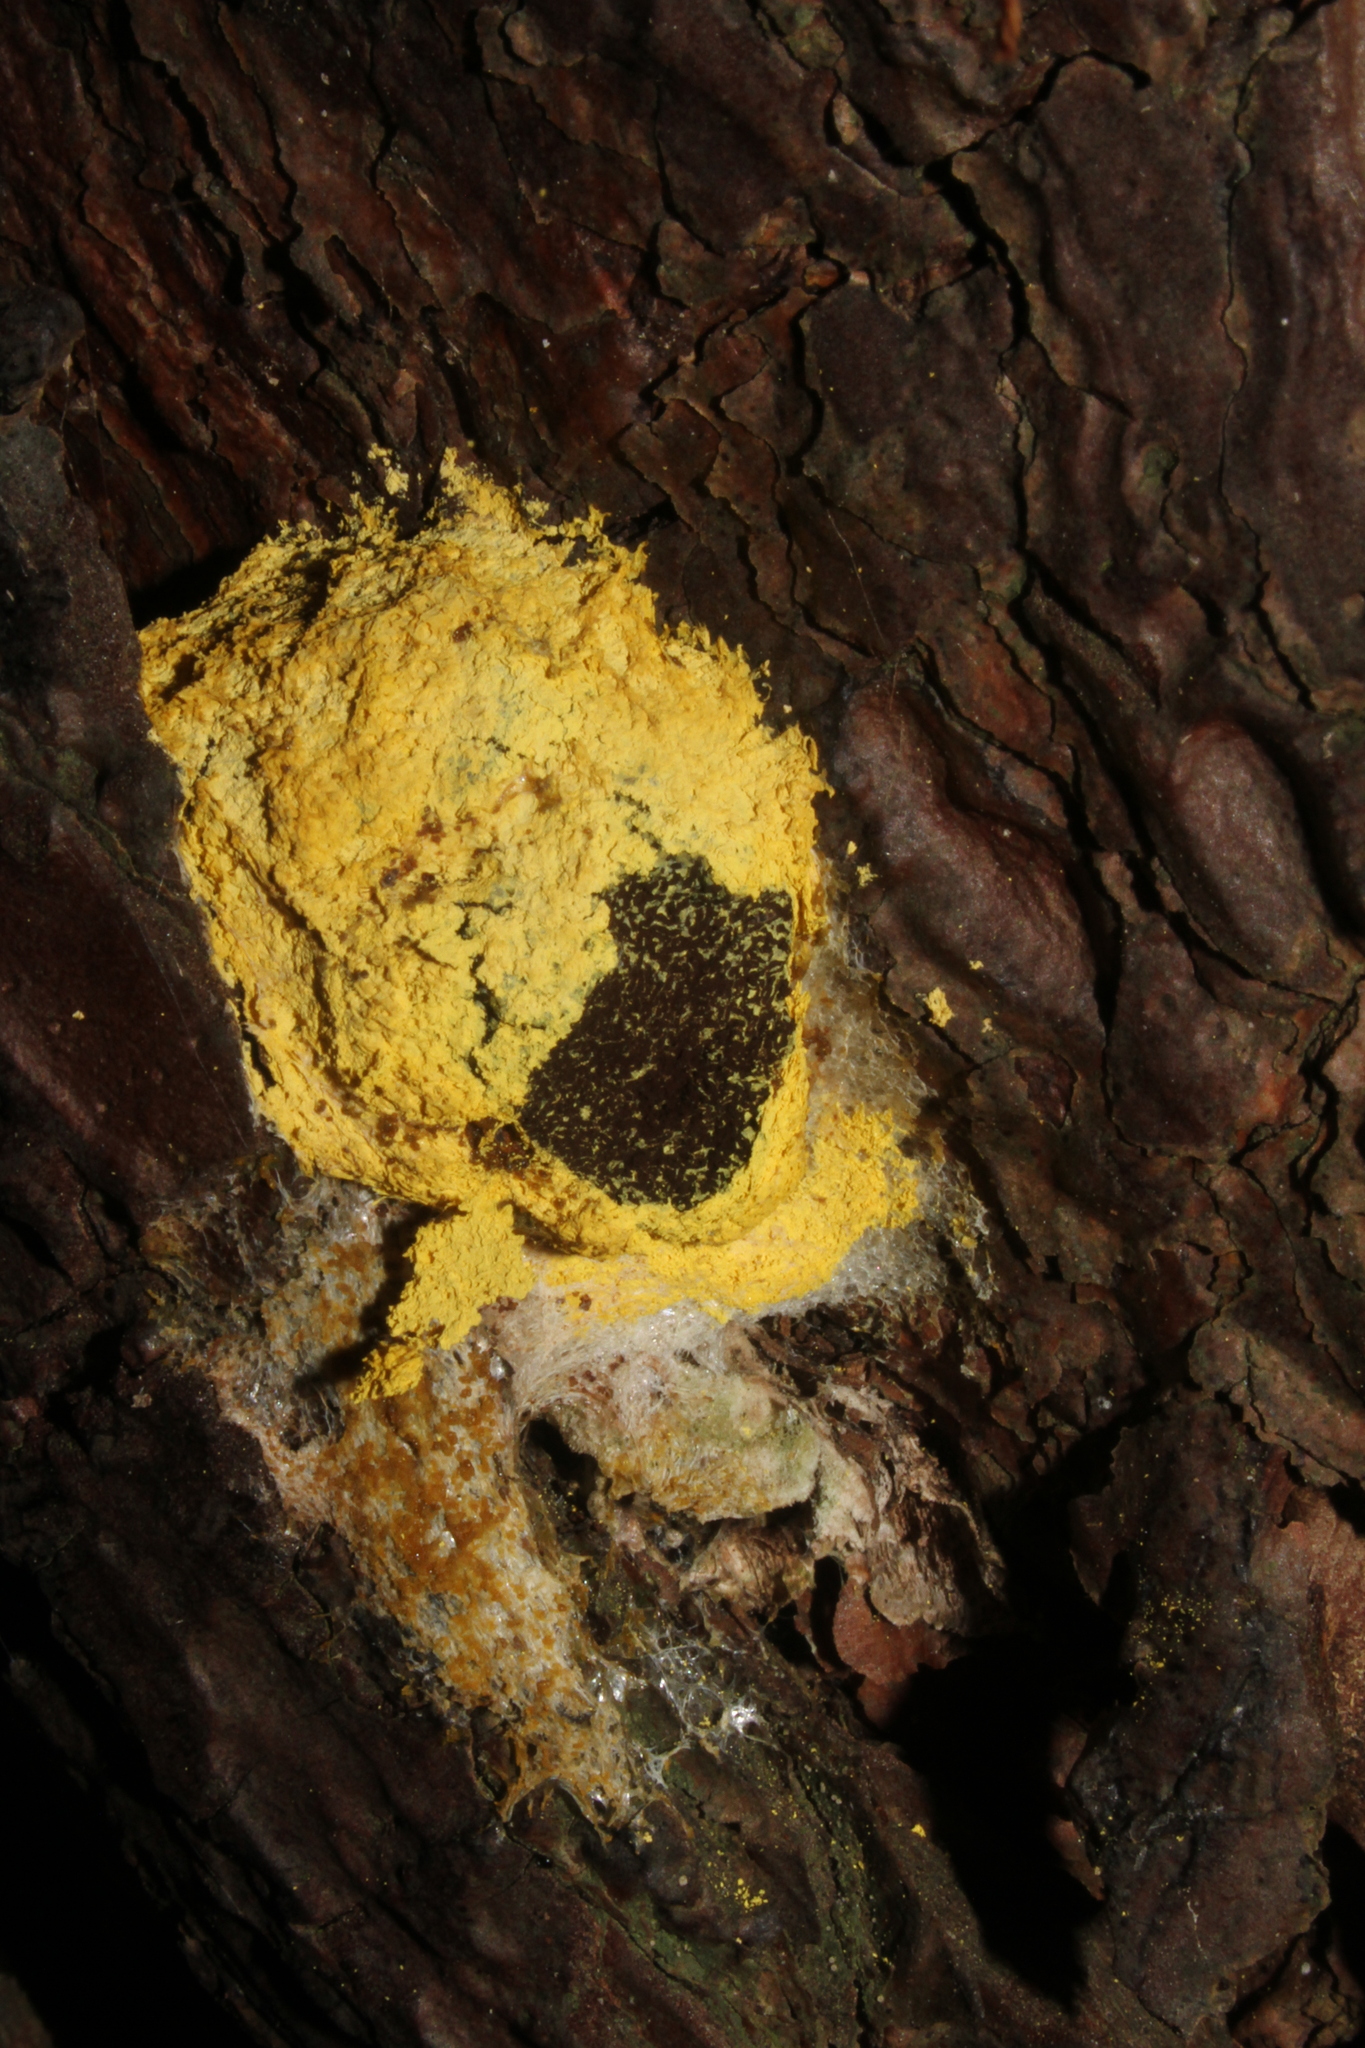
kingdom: Protozoa
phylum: Mycetozoa
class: Myxomycetes
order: Physarales
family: Physaraceae
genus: Fuligo
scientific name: Fuligo septica
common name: Dog vomit slime mold
